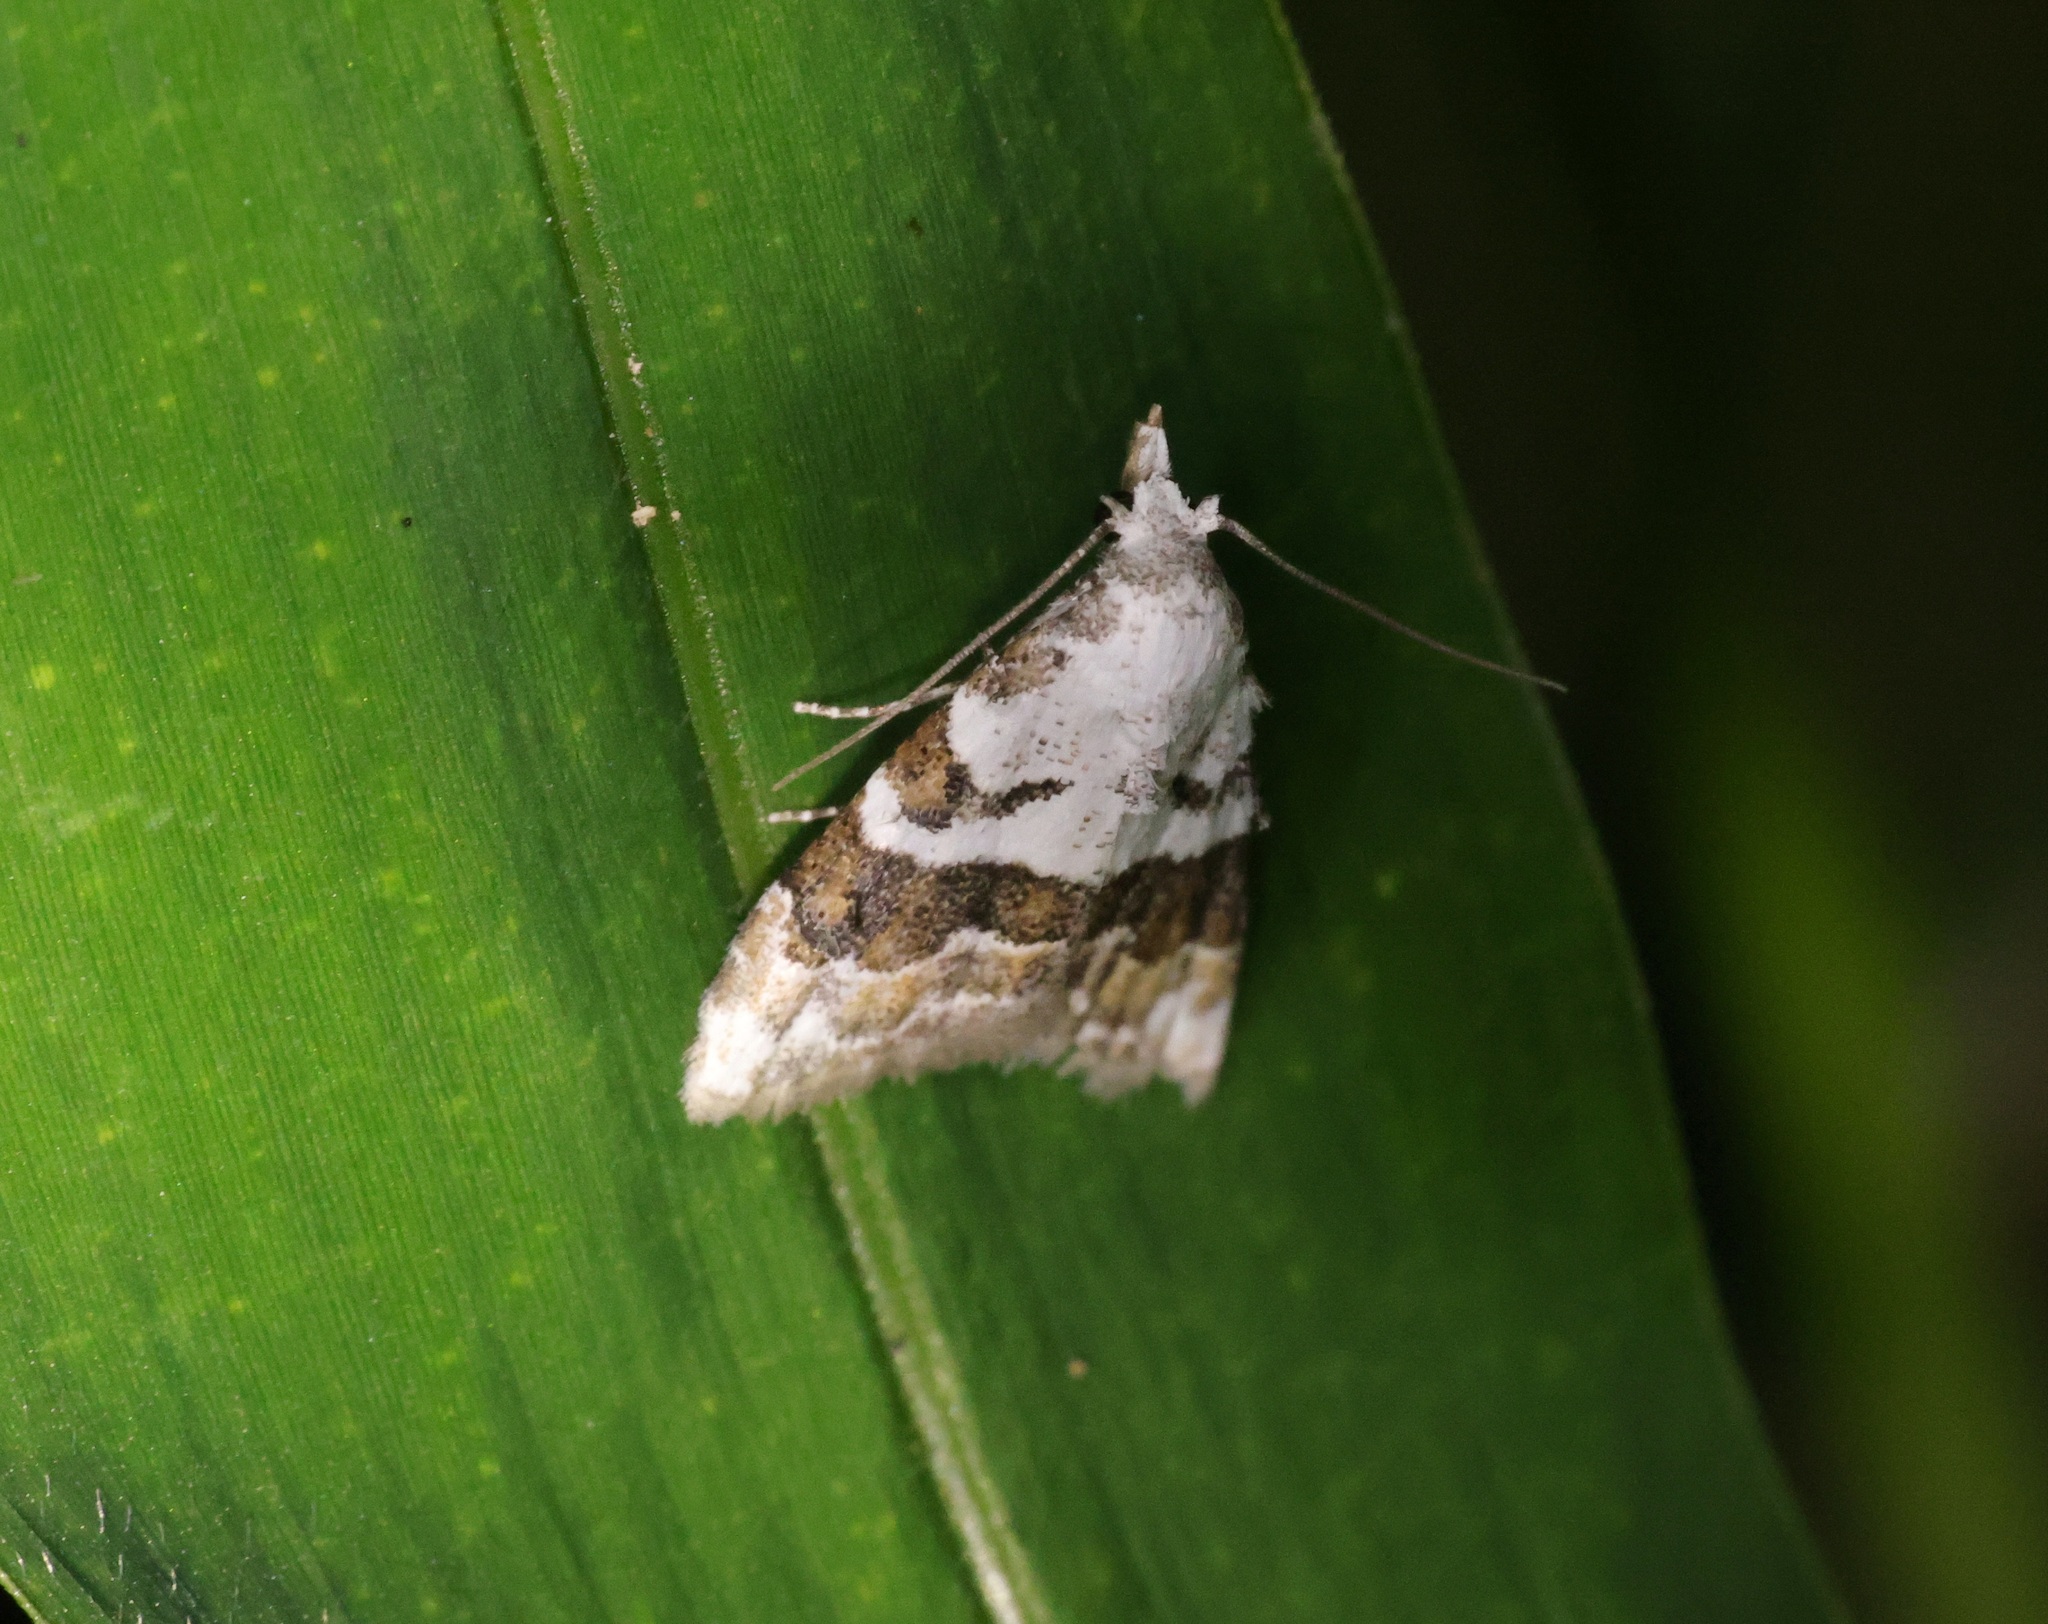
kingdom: Animalia
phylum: Arthropoda
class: Insecta
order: Lepidoptera
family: Nolidae
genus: Nola
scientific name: Nola lucidalis
